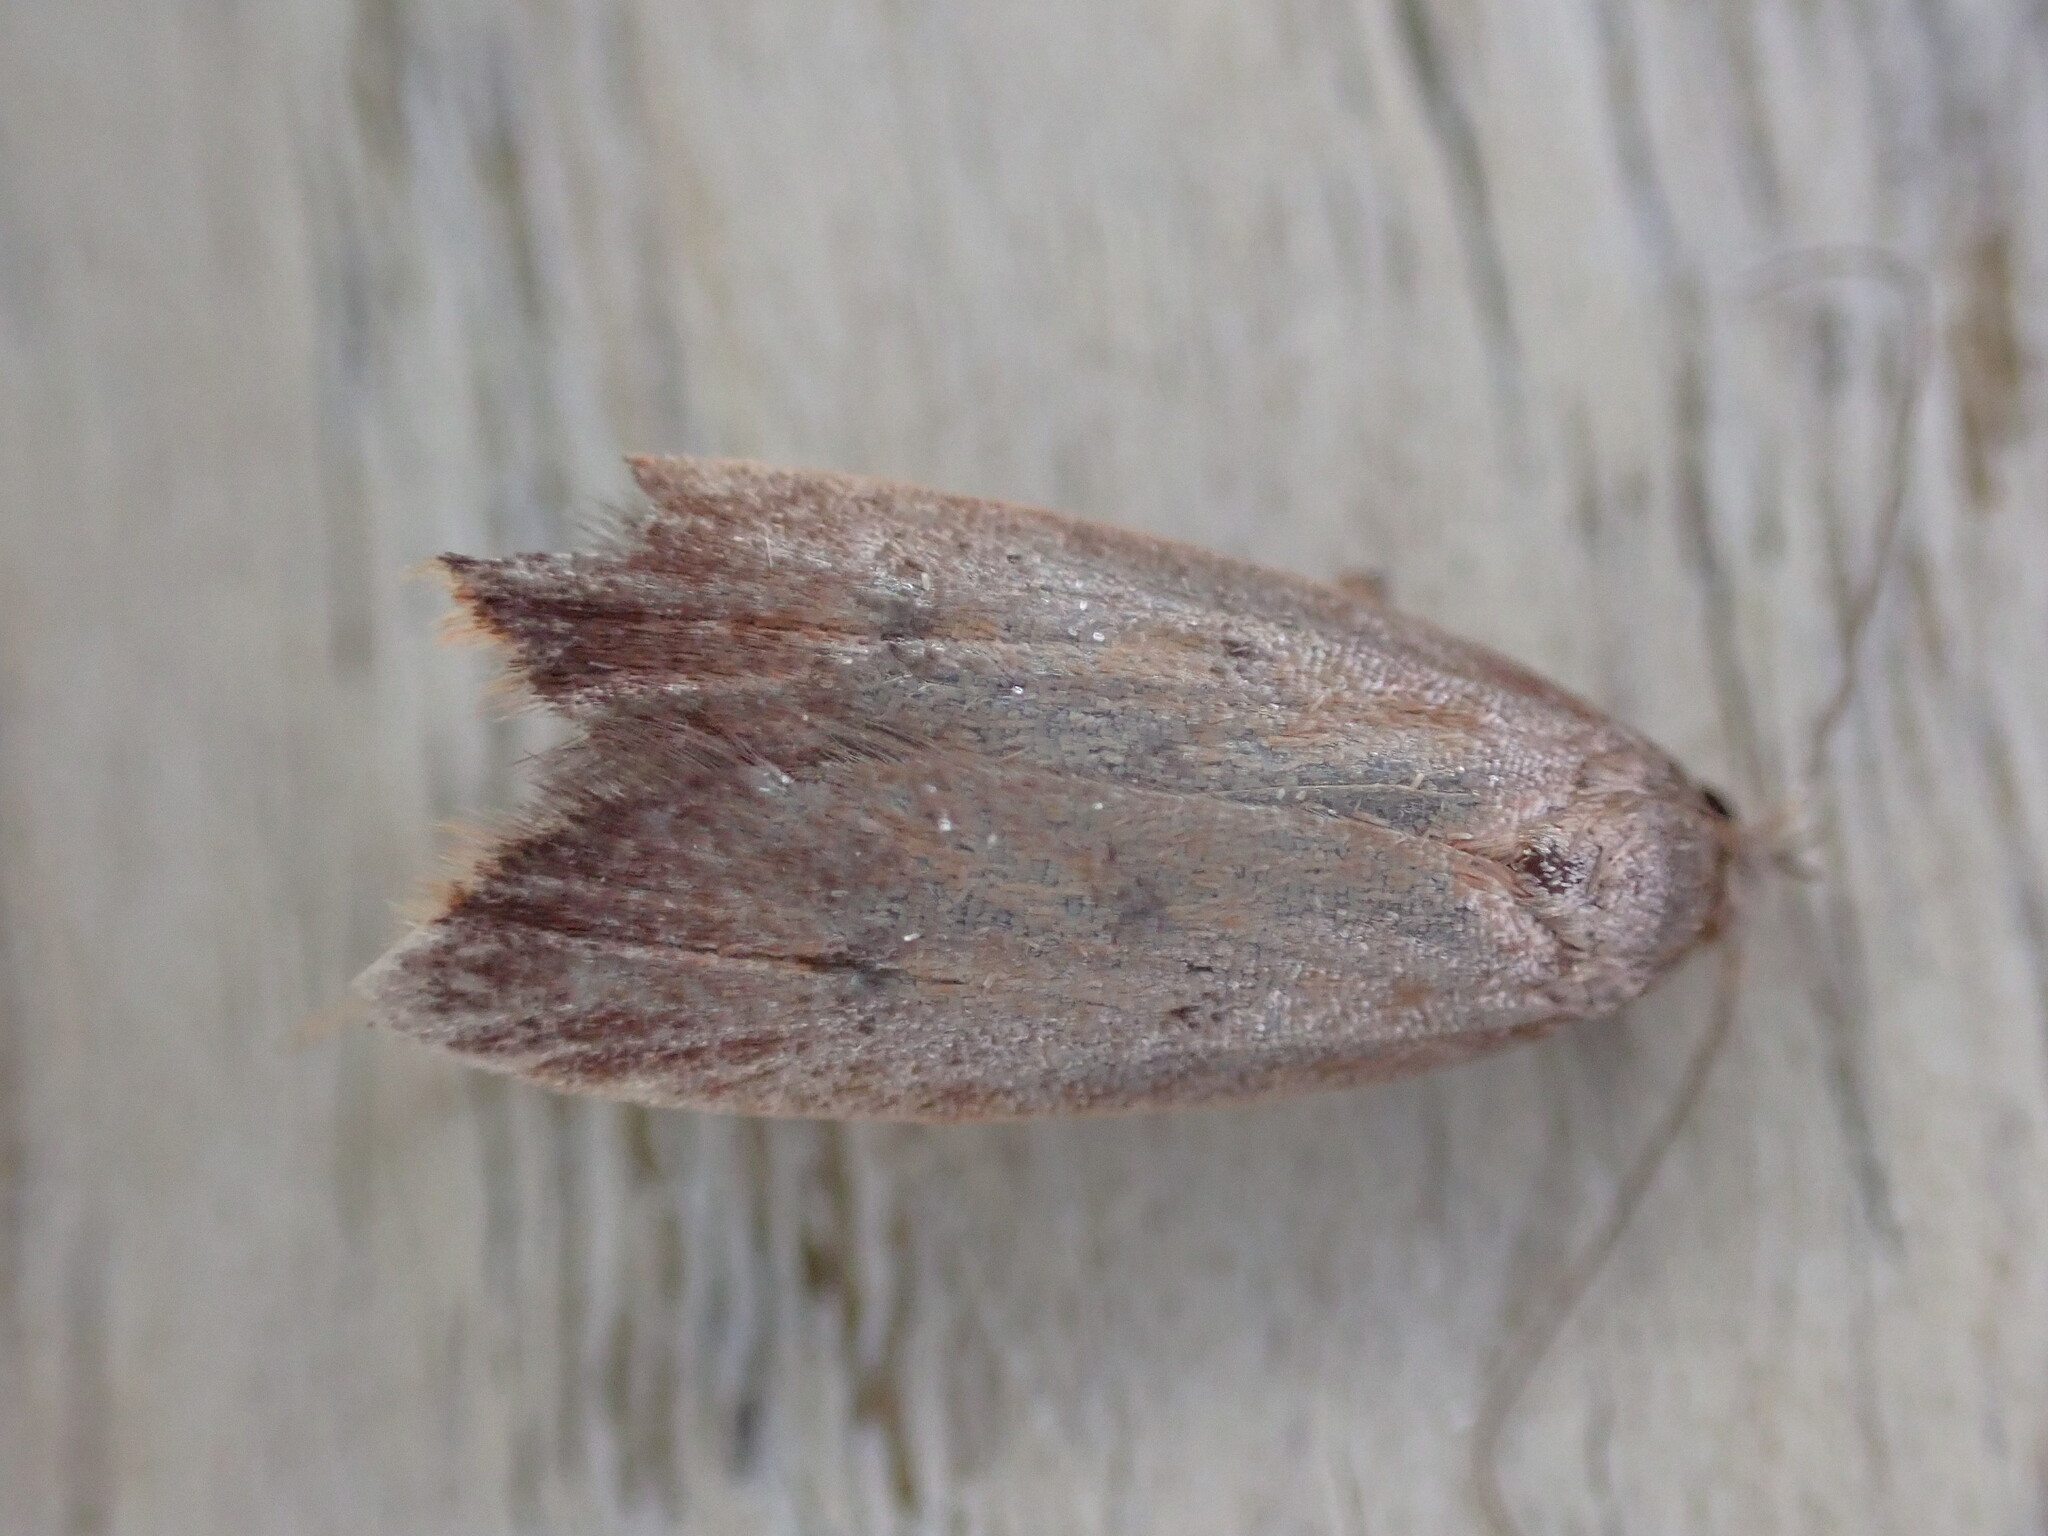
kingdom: Animalia
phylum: Arthropoda
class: Insecta
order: Lepidoptera
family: Oecophoridae
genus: Tachystola
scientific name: Tachystola acroxantha
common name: Ruddy streak
